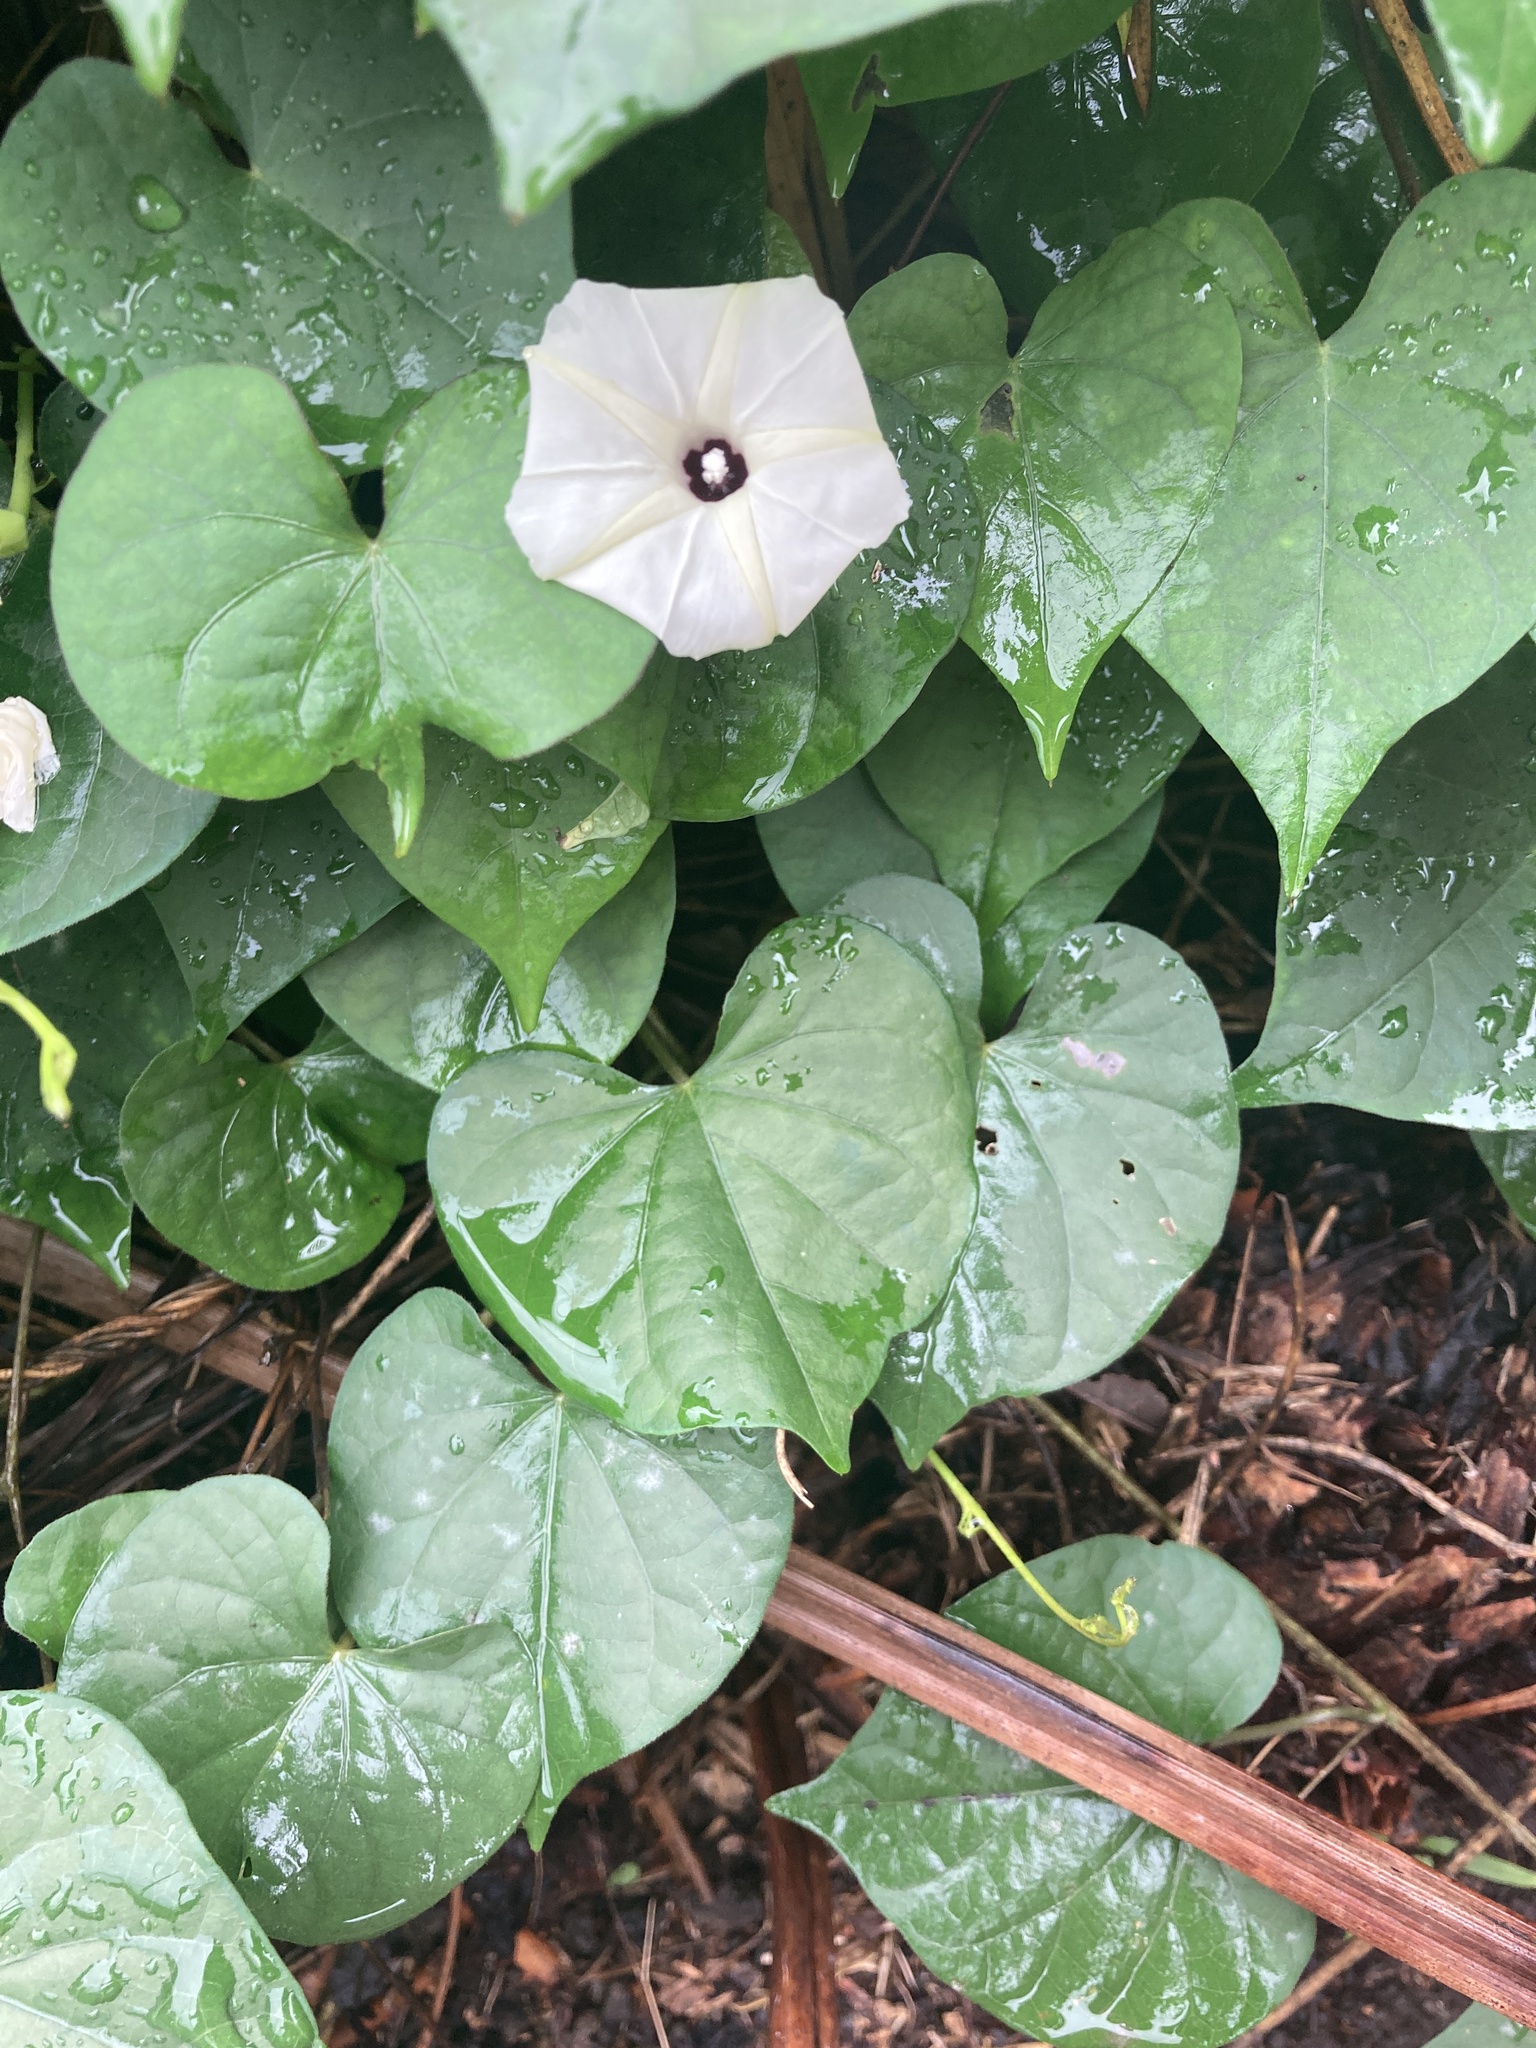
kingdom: Plantae
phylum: Tracheophyta
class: Magnoliopsida
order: Solanales
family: Convolvulaceae
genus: Ipomoea
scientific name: Ipomoea obscura
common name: Obscure morning-glory
